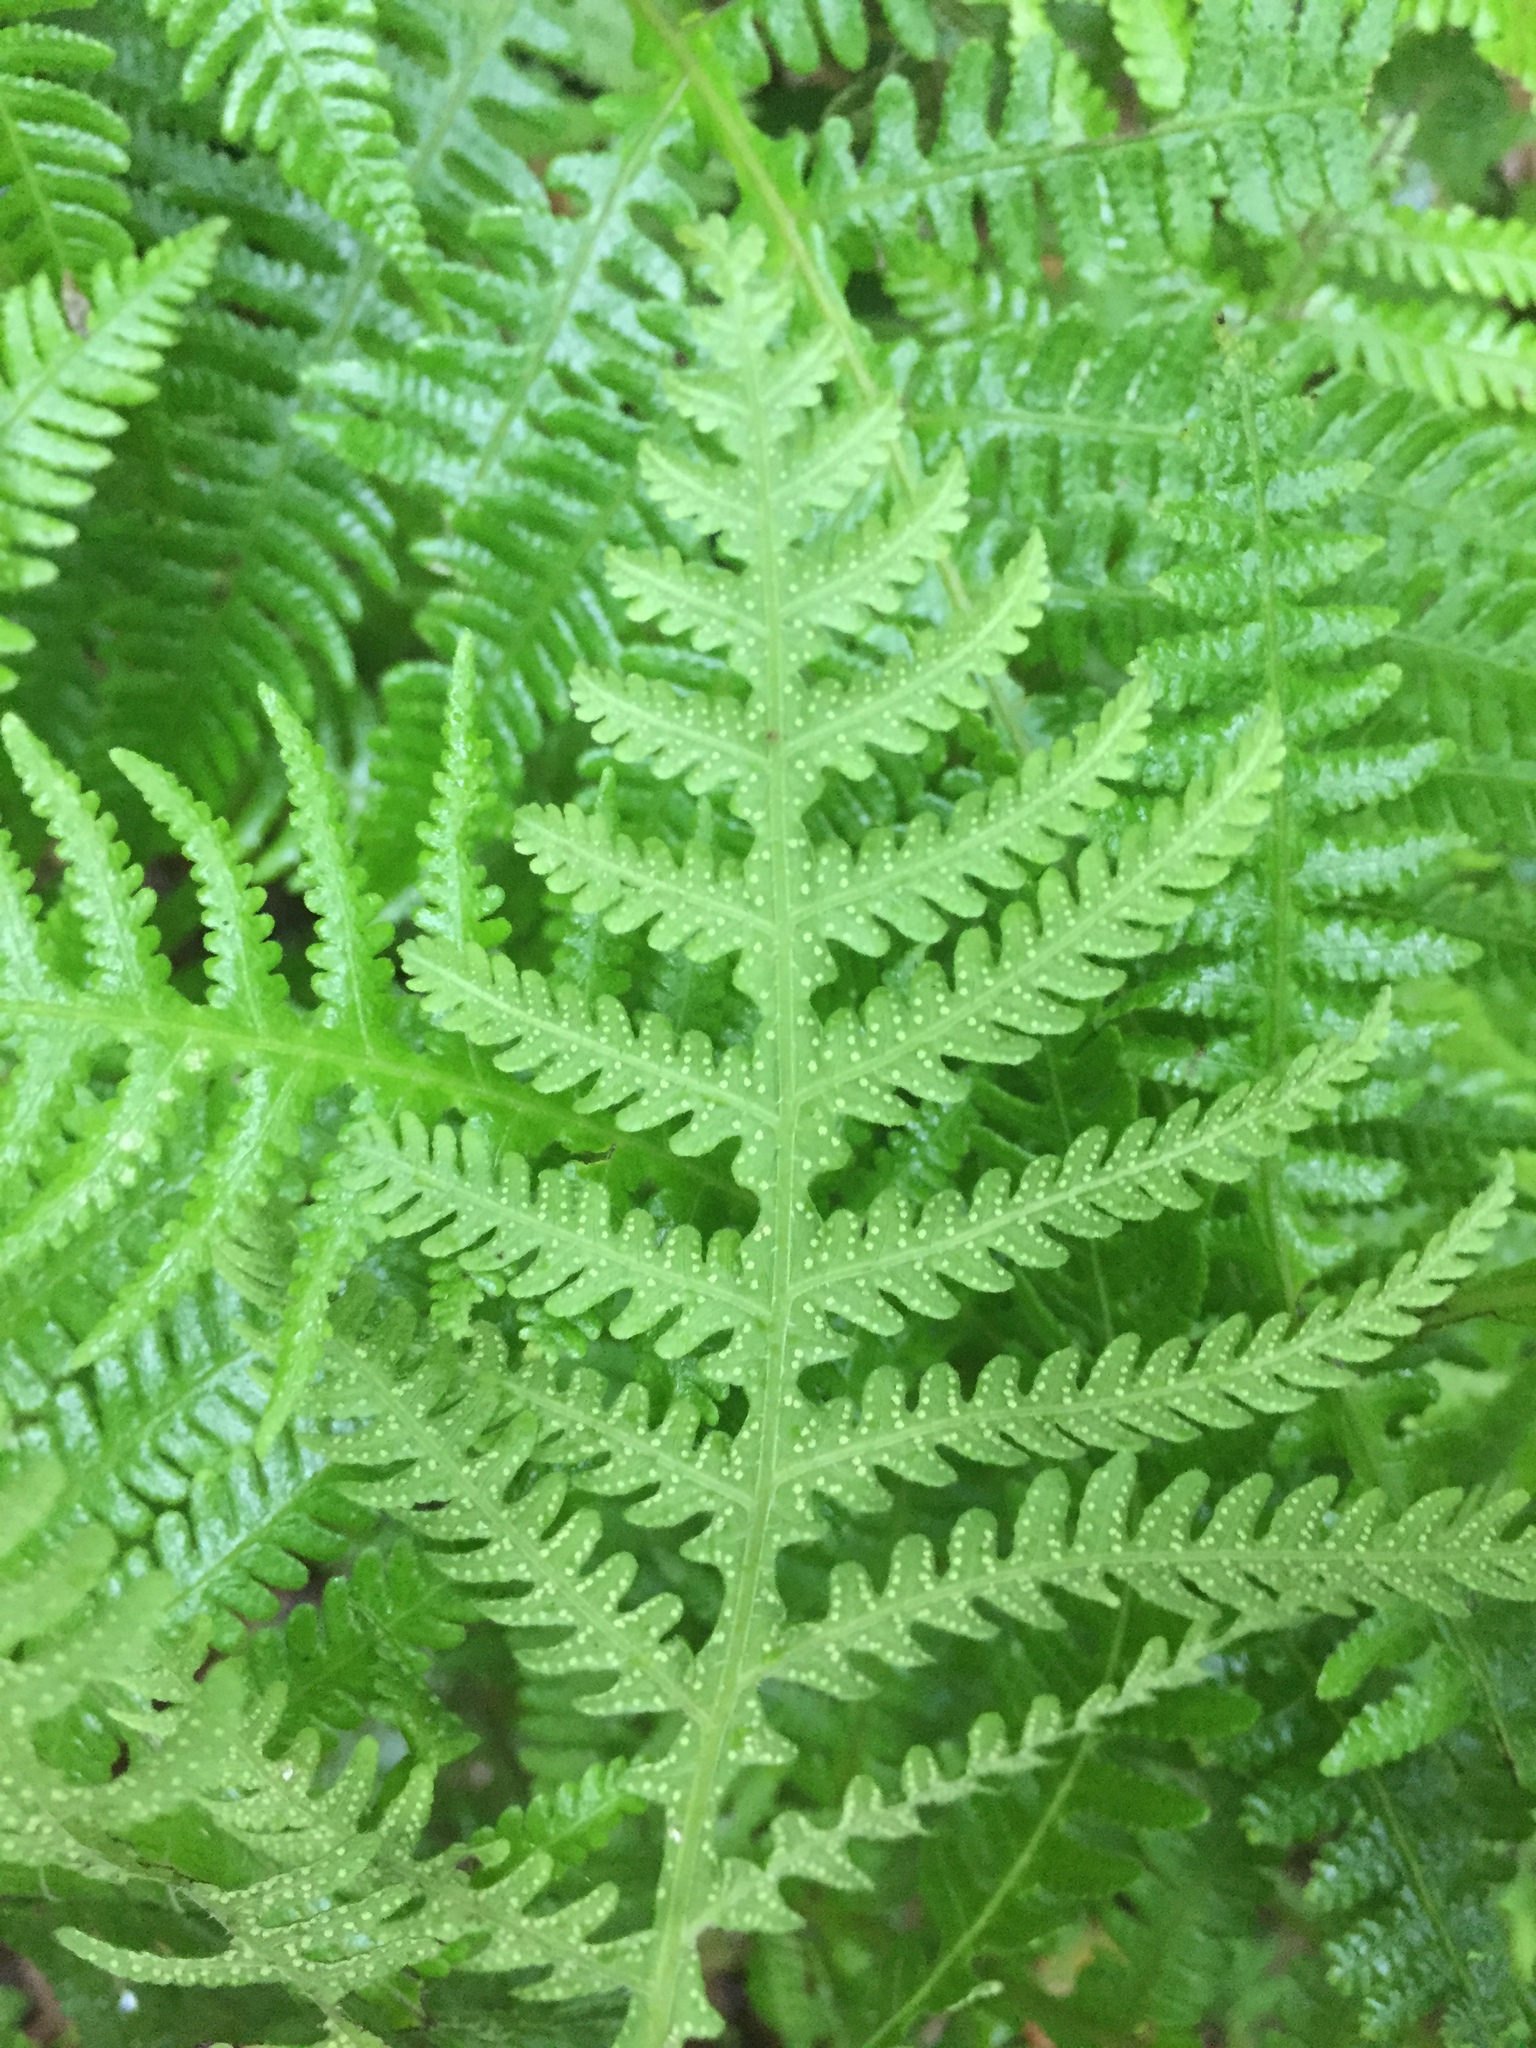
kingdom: Plantae
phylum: Tracheophyta
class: Polypodiopsida
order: Polypodiales
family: Thelypteridaceae
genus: Phegopteris
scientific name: Phegopteris hexagonoptera
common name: Broad beech fern
